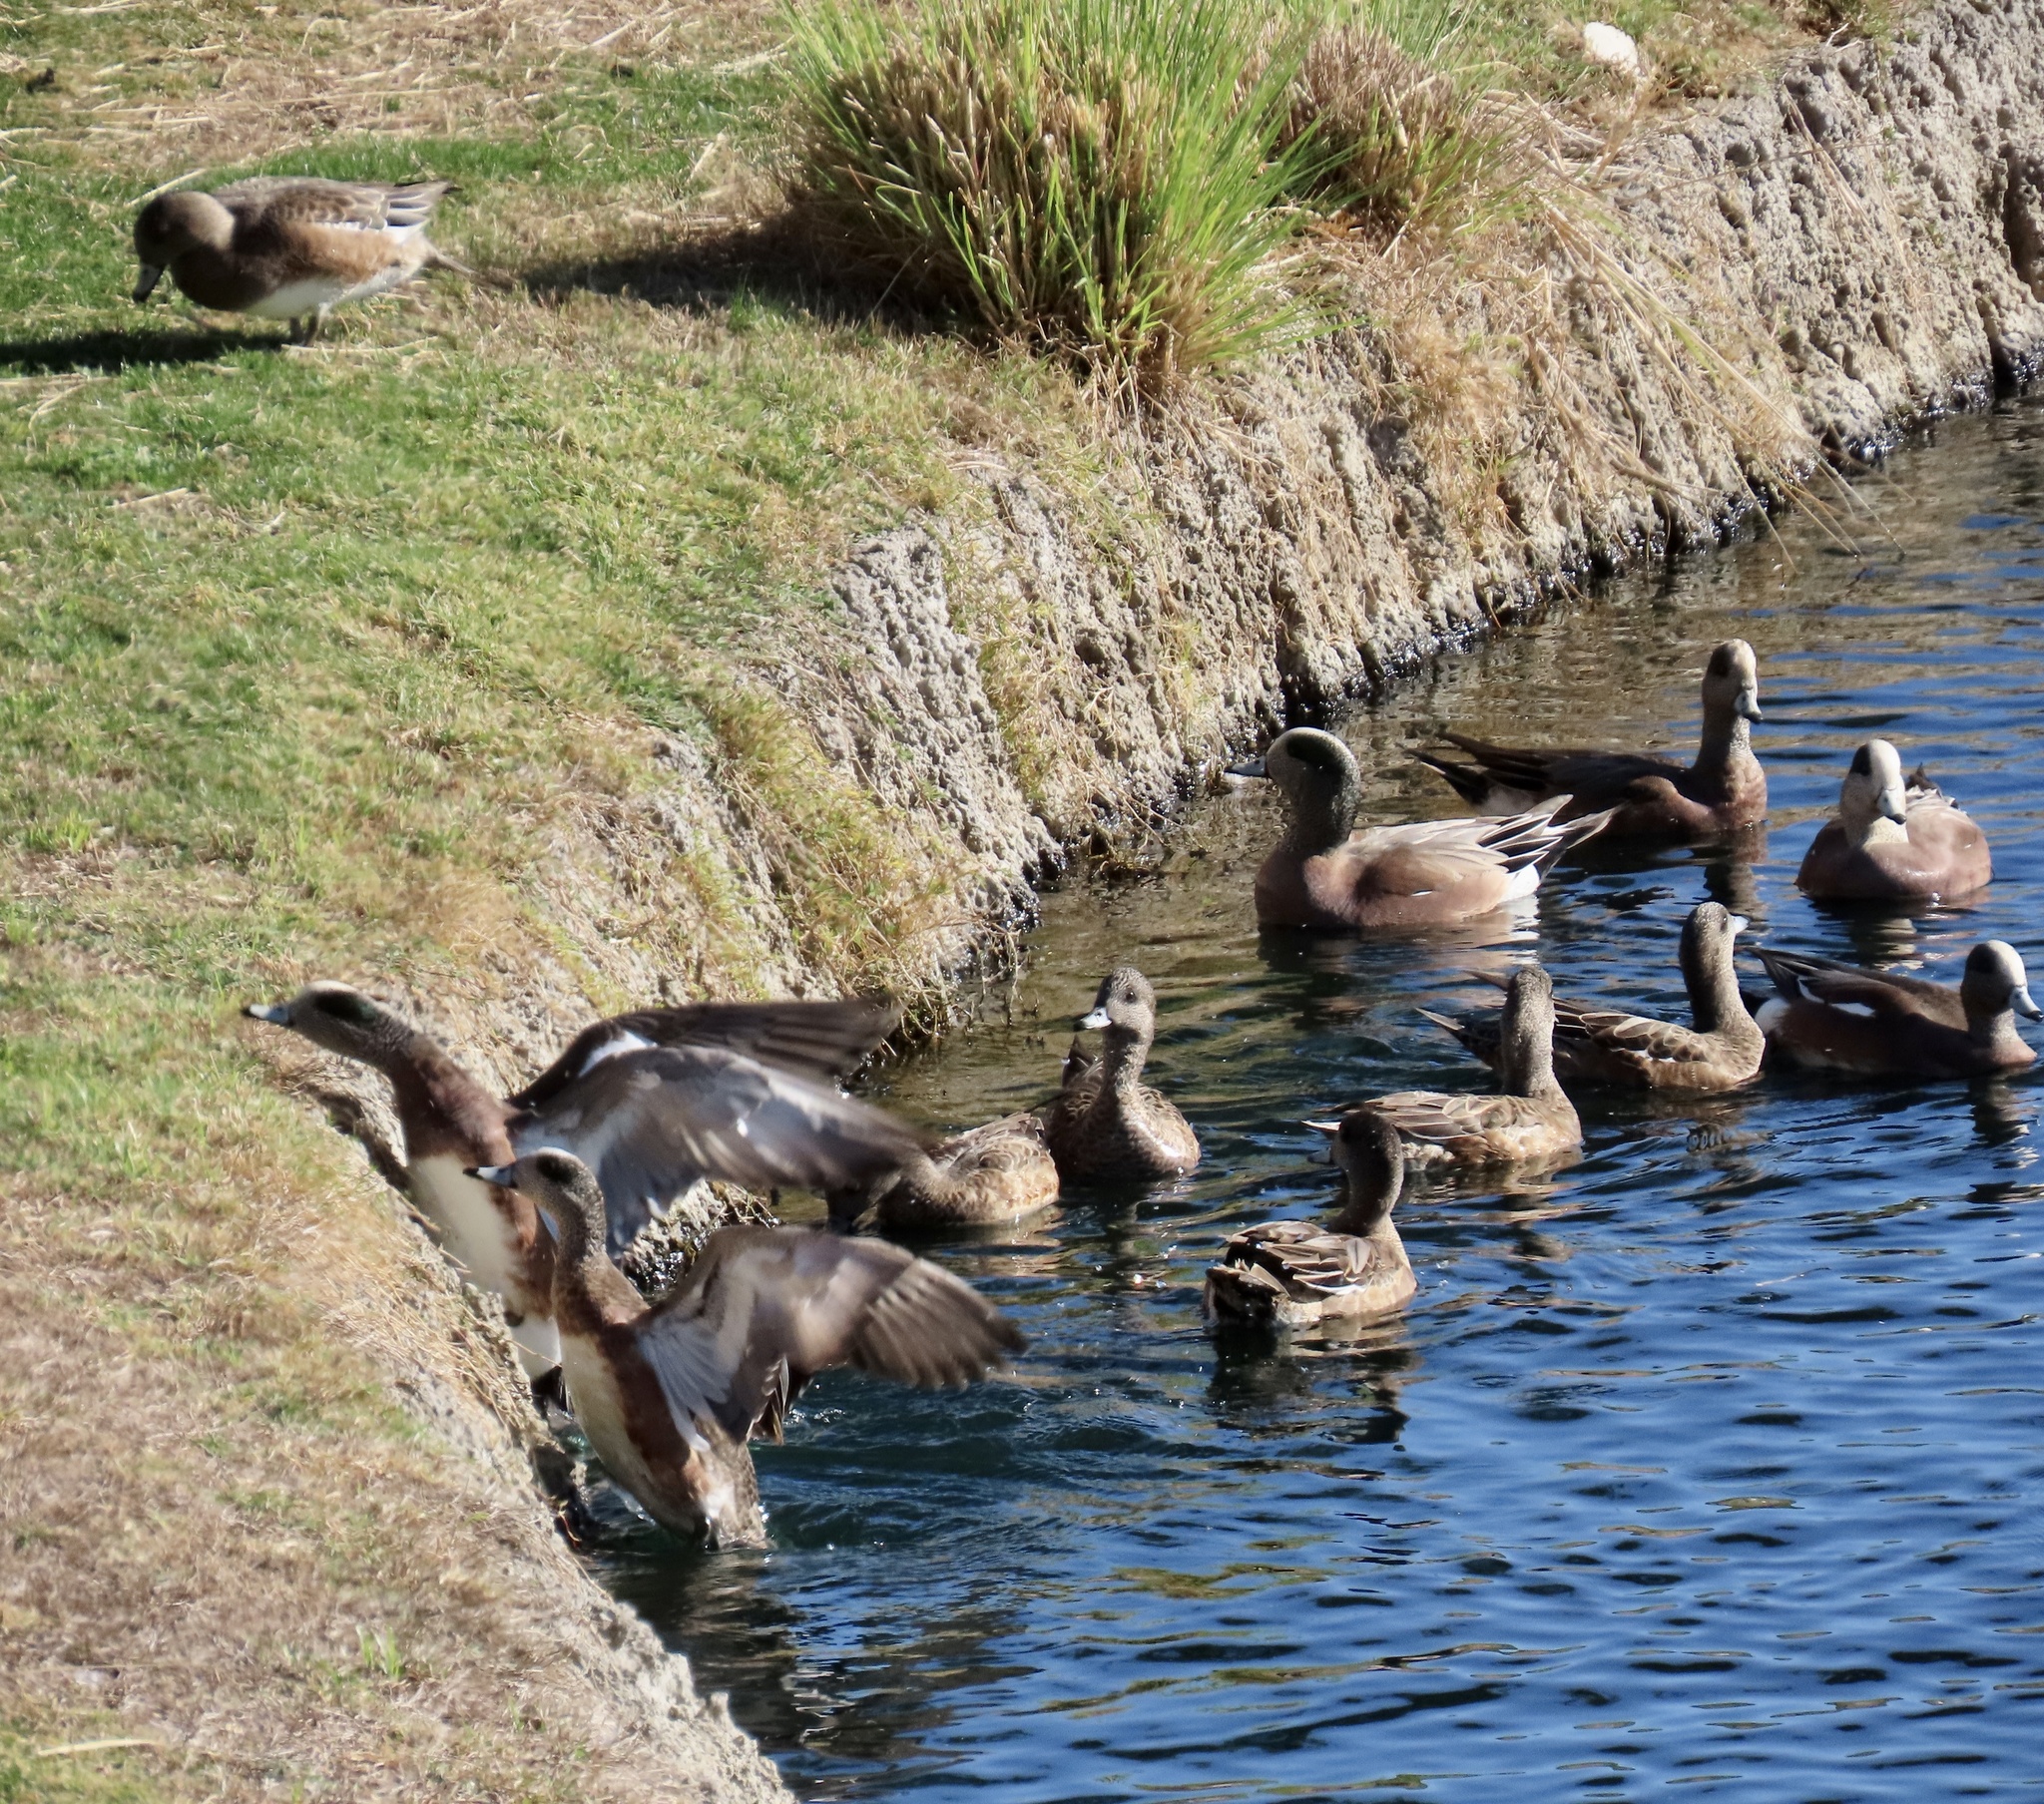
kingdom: Animalia
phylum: Chordata
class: Aves
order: Anseriformes
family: Anatidae
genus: Mareca
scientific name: Mareca americana
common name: American wigeon
